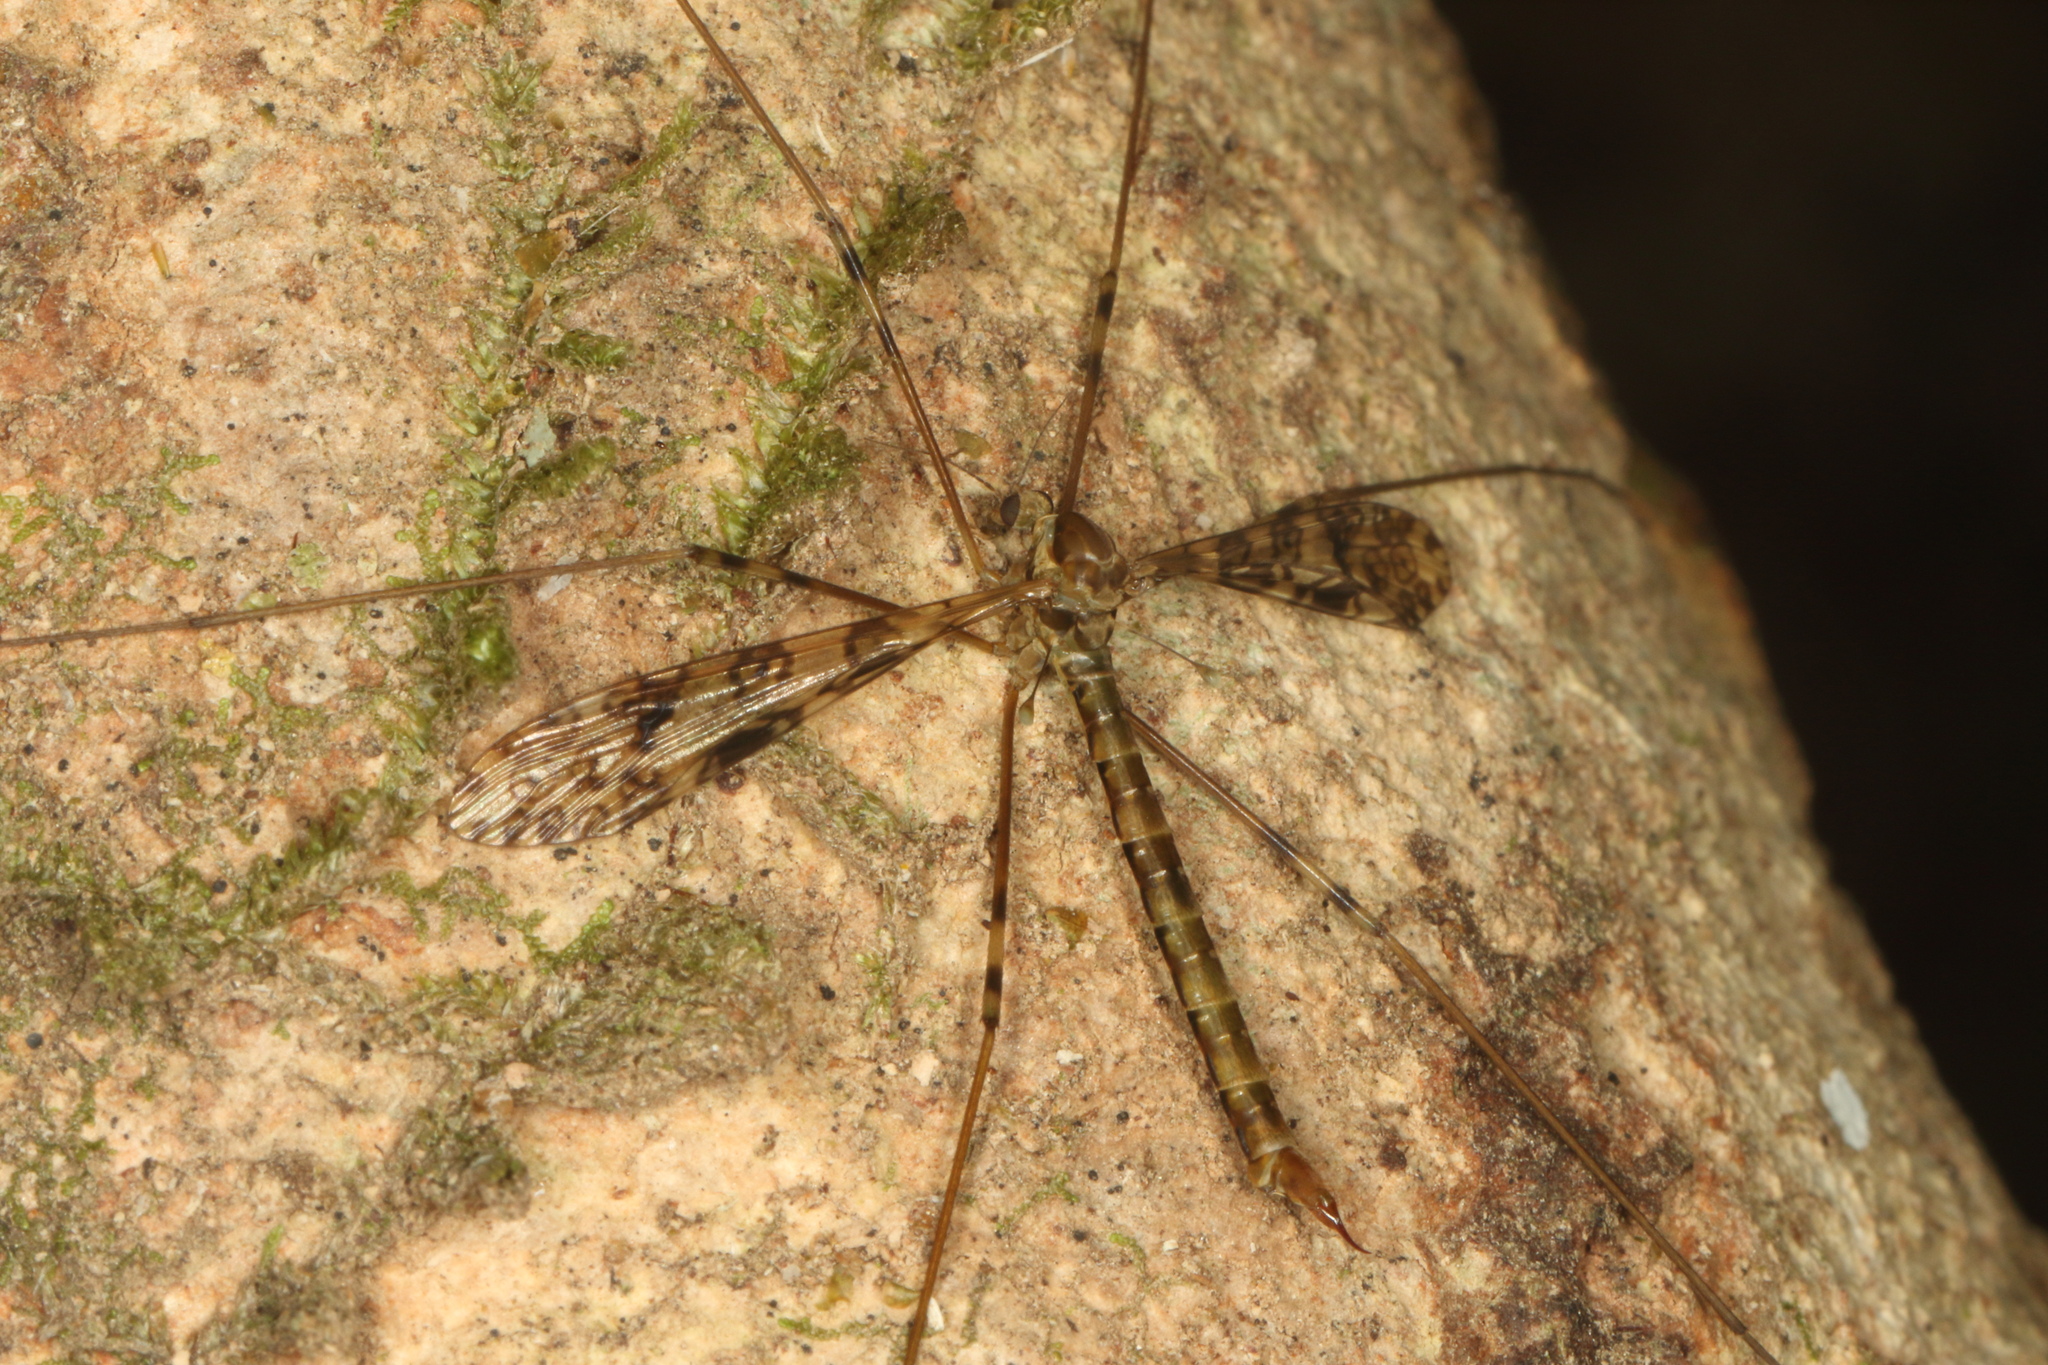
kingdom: Animalia
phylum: Arthropoda
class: Insecta
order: Diptera
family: Limoniidae
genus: Austrolimnophila
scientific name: Austrolimnophila argus
